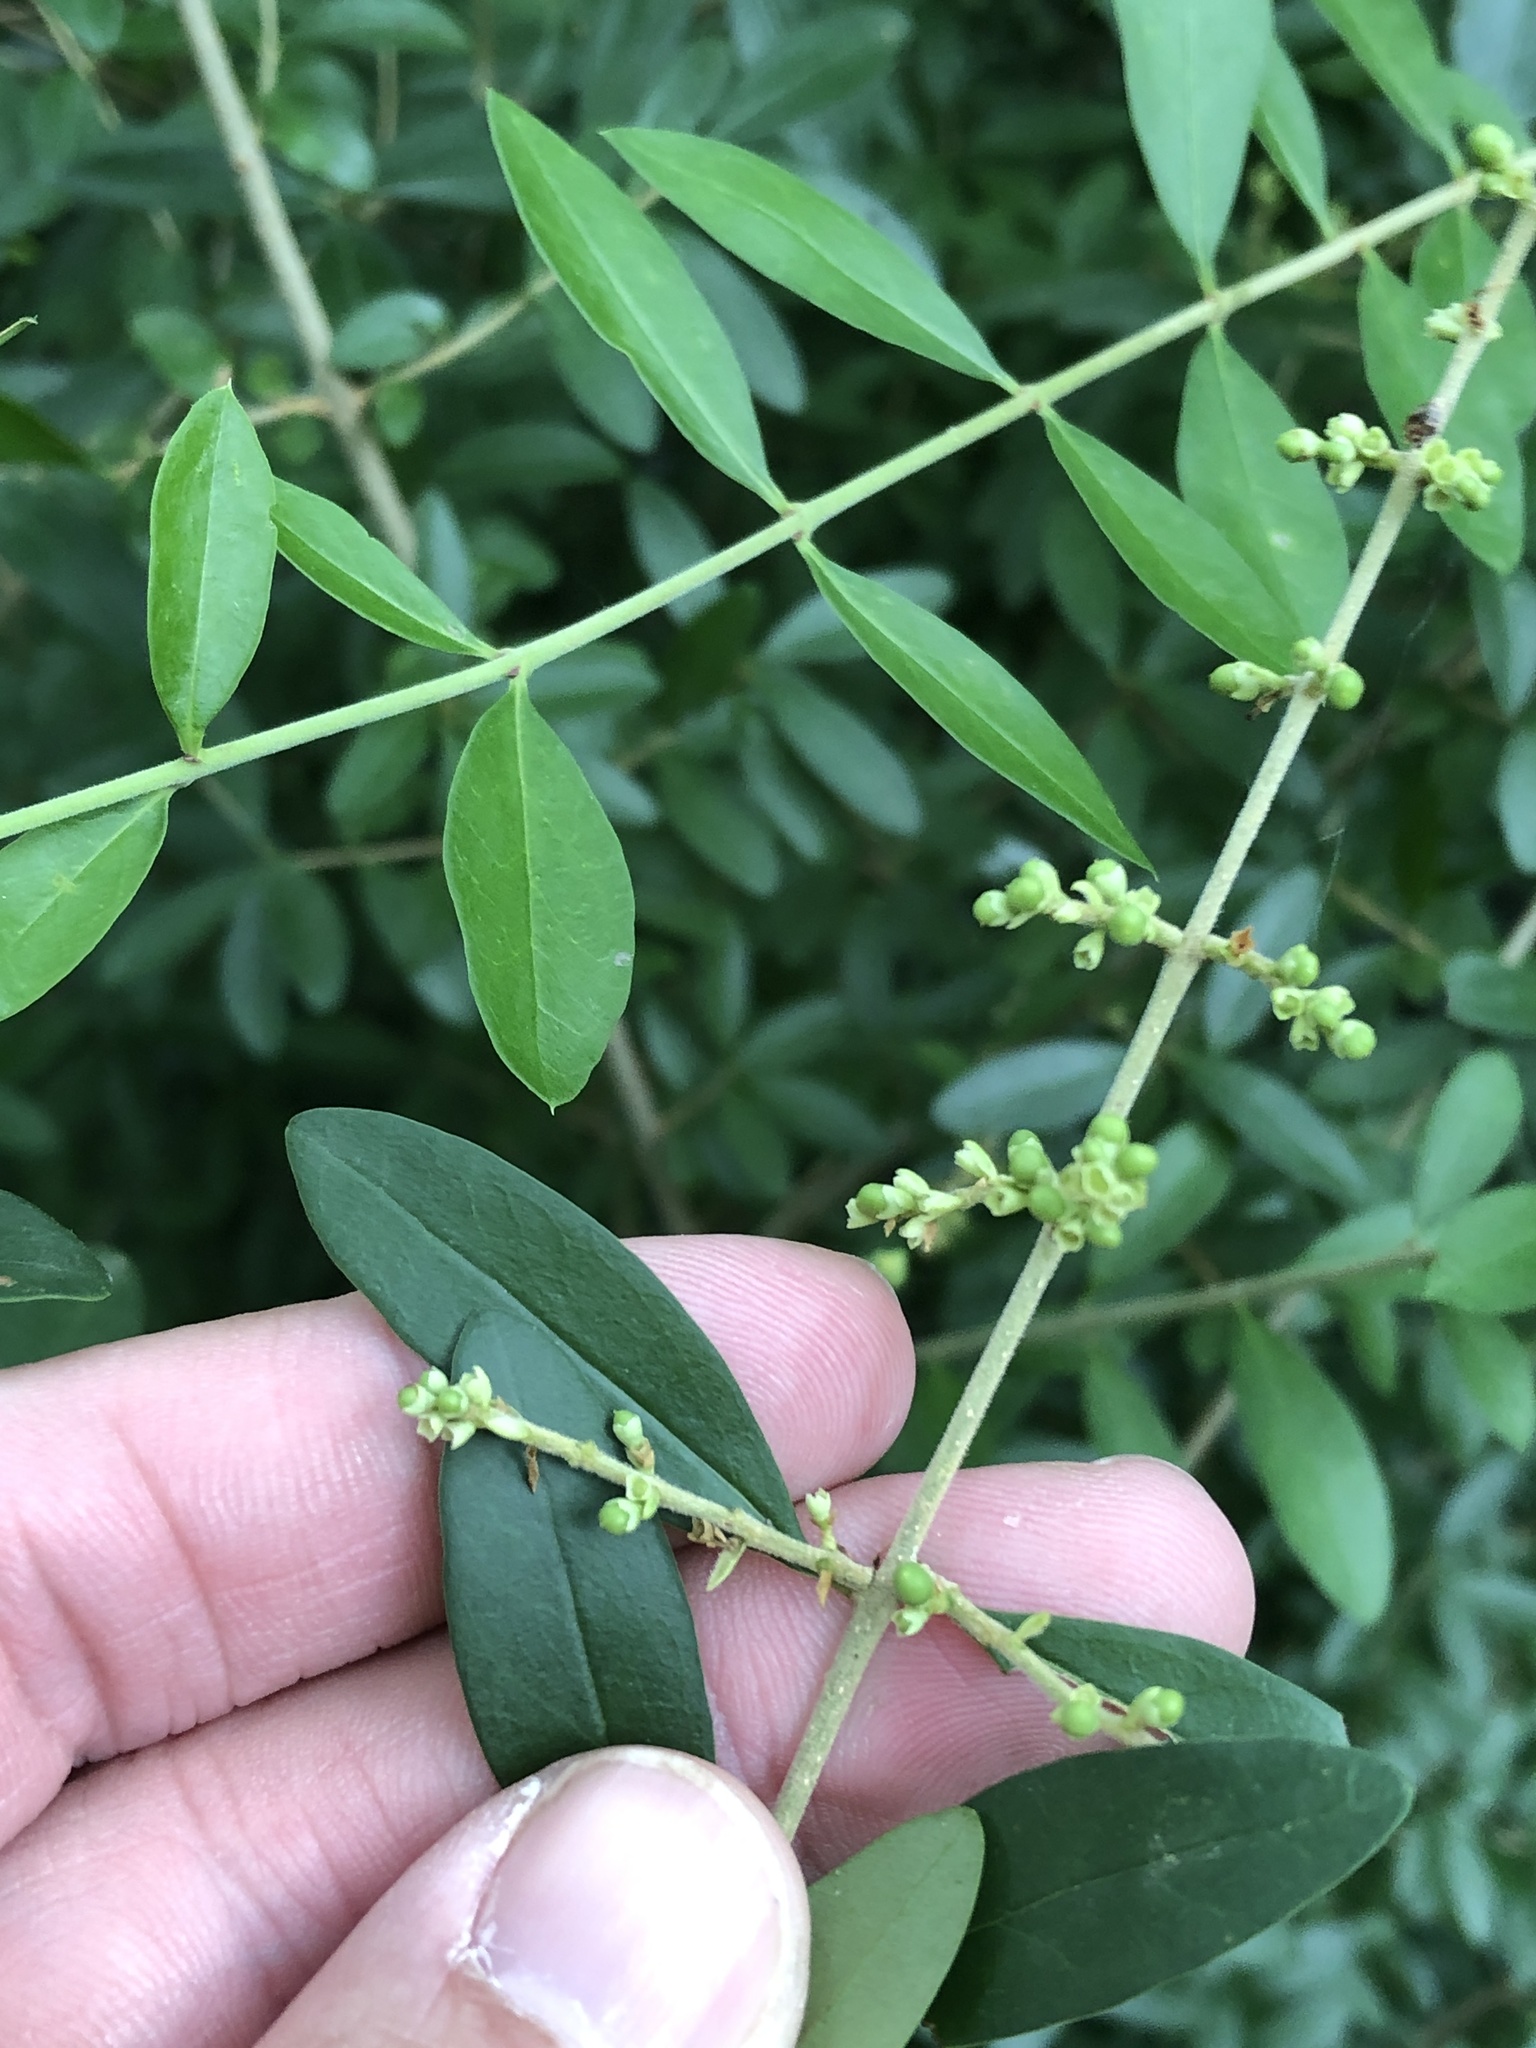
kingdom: Plantae
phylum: Tracheophyta
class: Magnoliopsida
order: Lamiales
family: Oleaceae
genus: Ligustrum
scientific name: Ligustrum quihoui
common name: Waxyleaf privet
